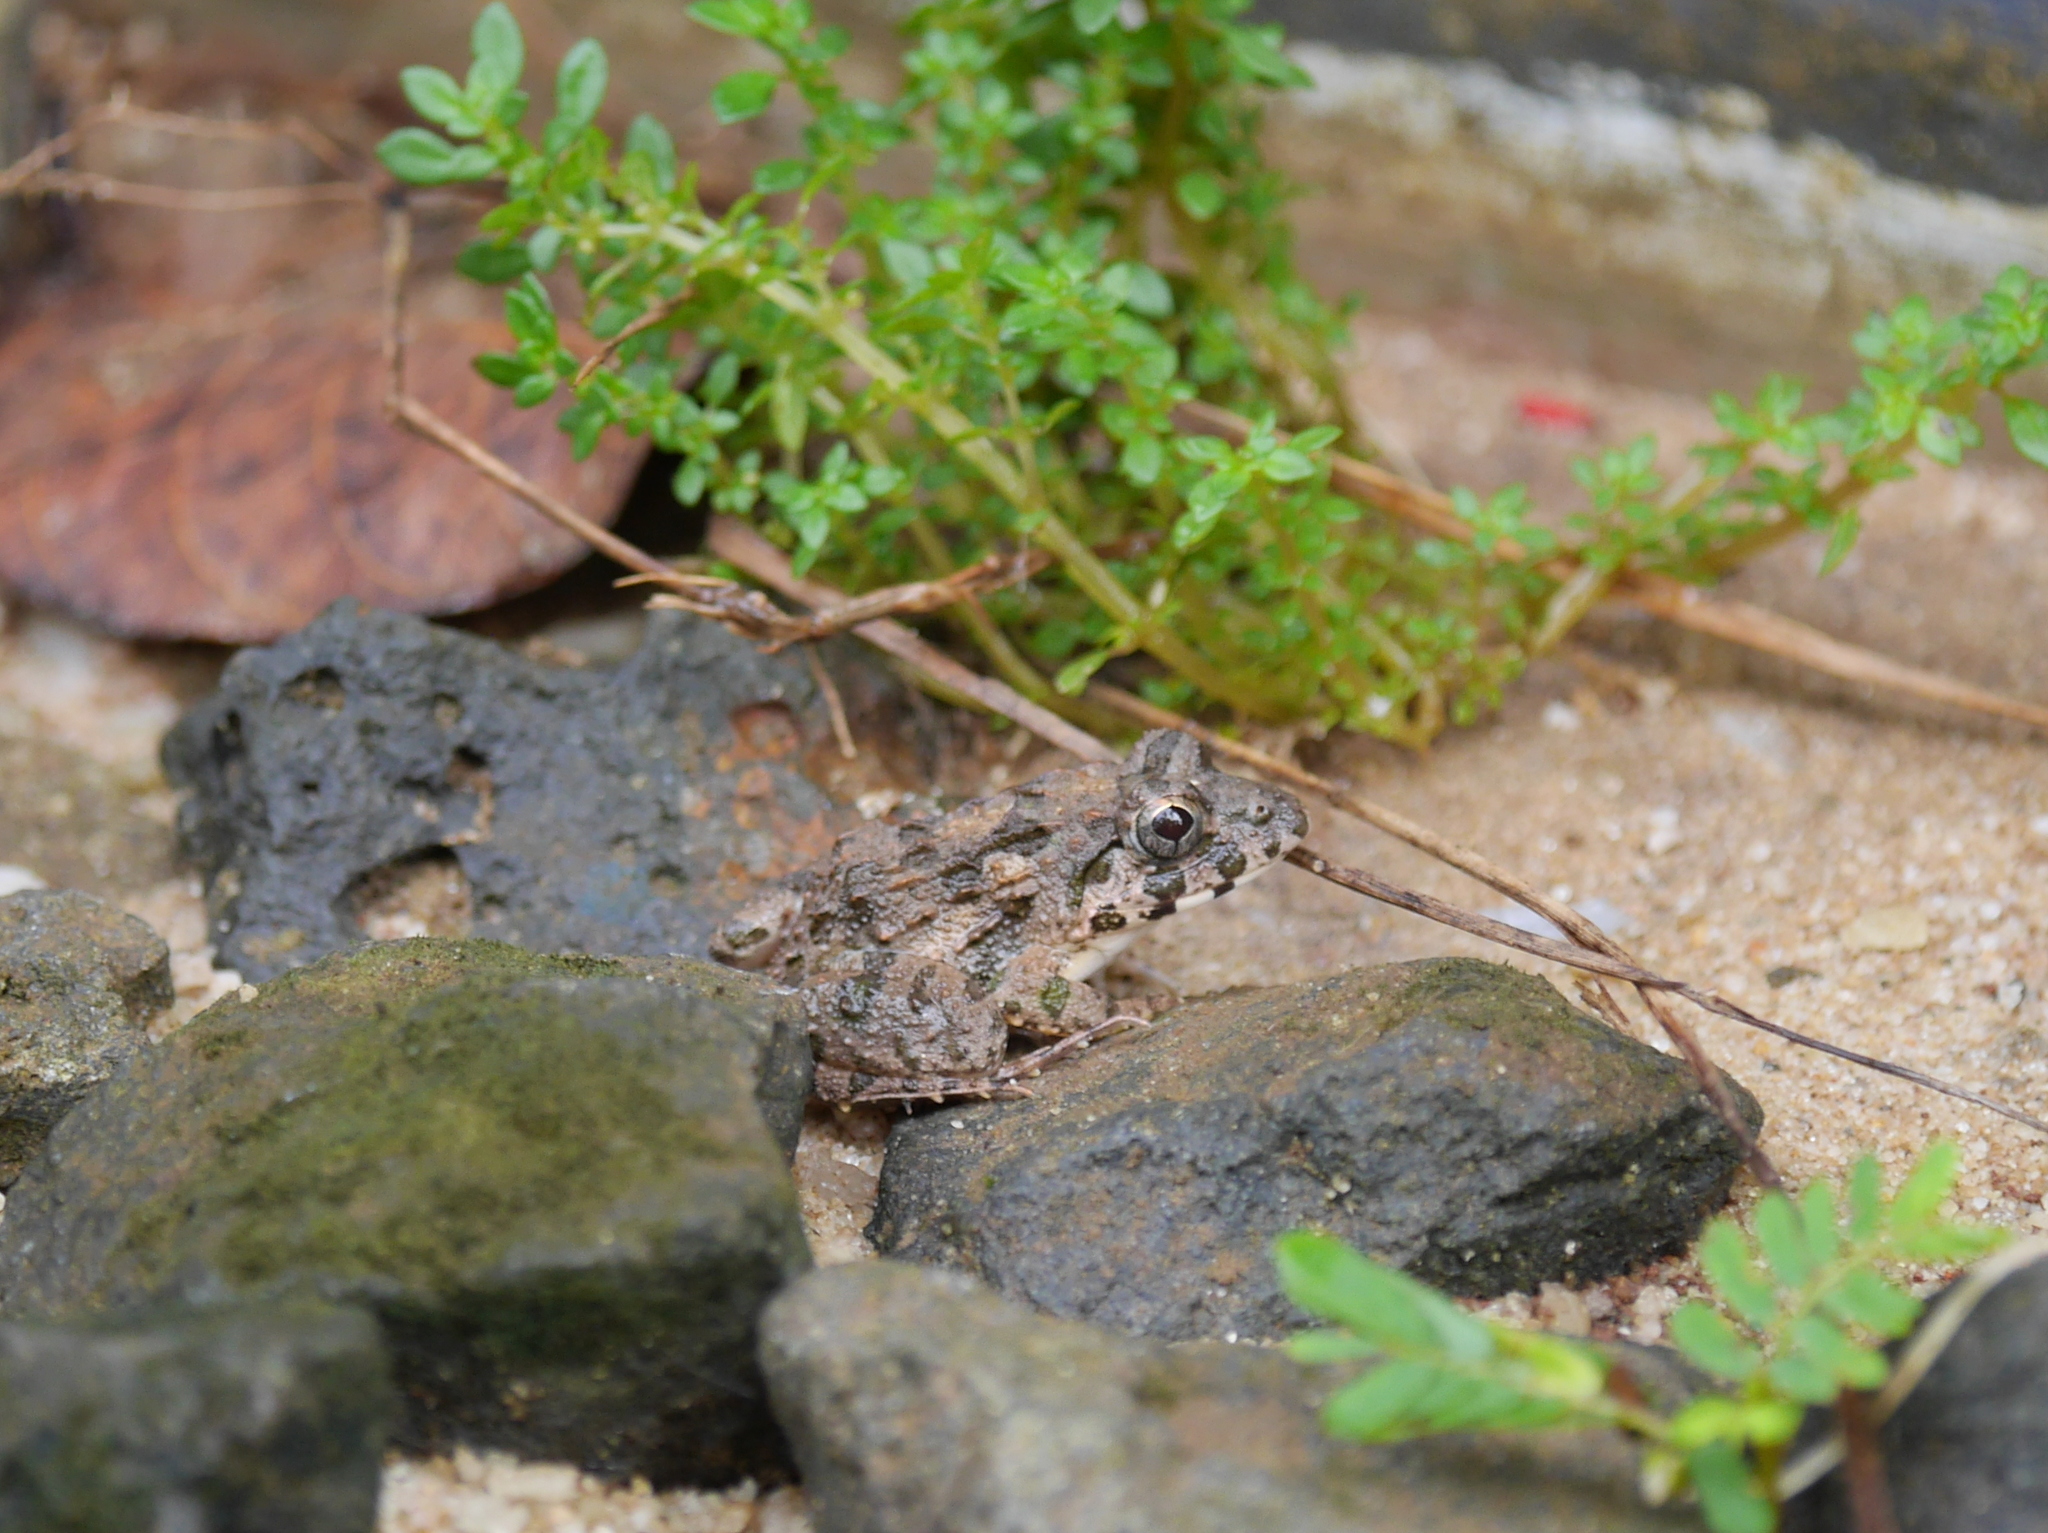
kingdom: Animalia
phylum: Chordata
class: Amphibia
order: Anura
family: Dicroglossidae
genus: Fejervarya
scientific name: Fejervarya limnocharis
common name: Asian grass frog/common pond frog/field frog/grass frog/indian rice frog
